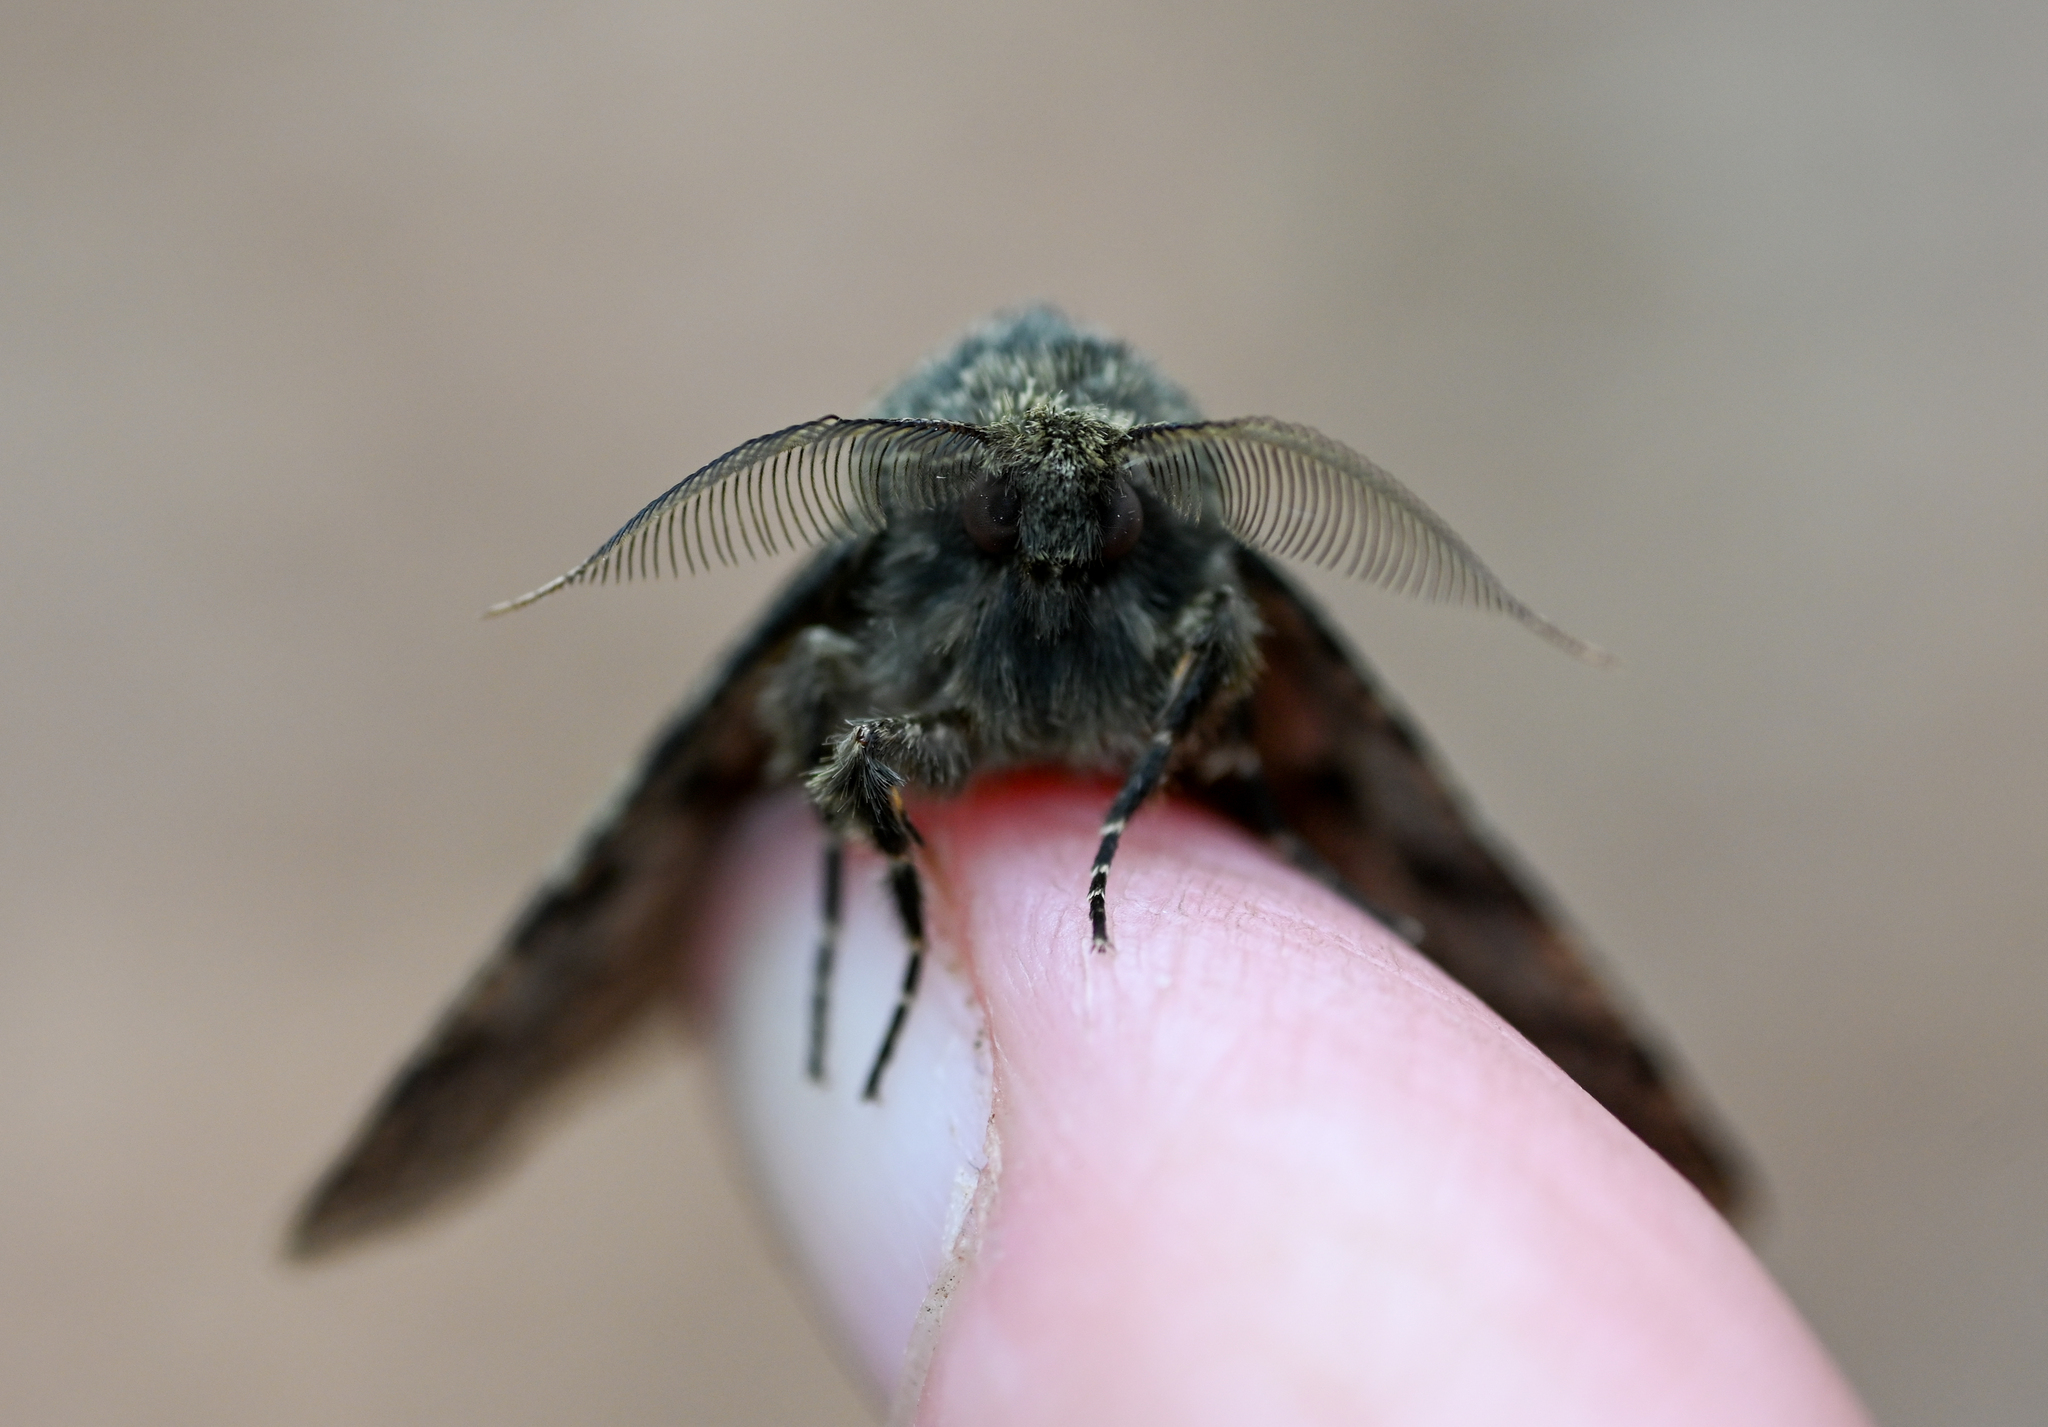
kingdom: Animalia
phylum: Arthropoda
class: Insecta
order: Lepidoptera
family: Geometridae
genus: Lycia
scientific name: Lycia ypsilon
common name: Wooly gray
